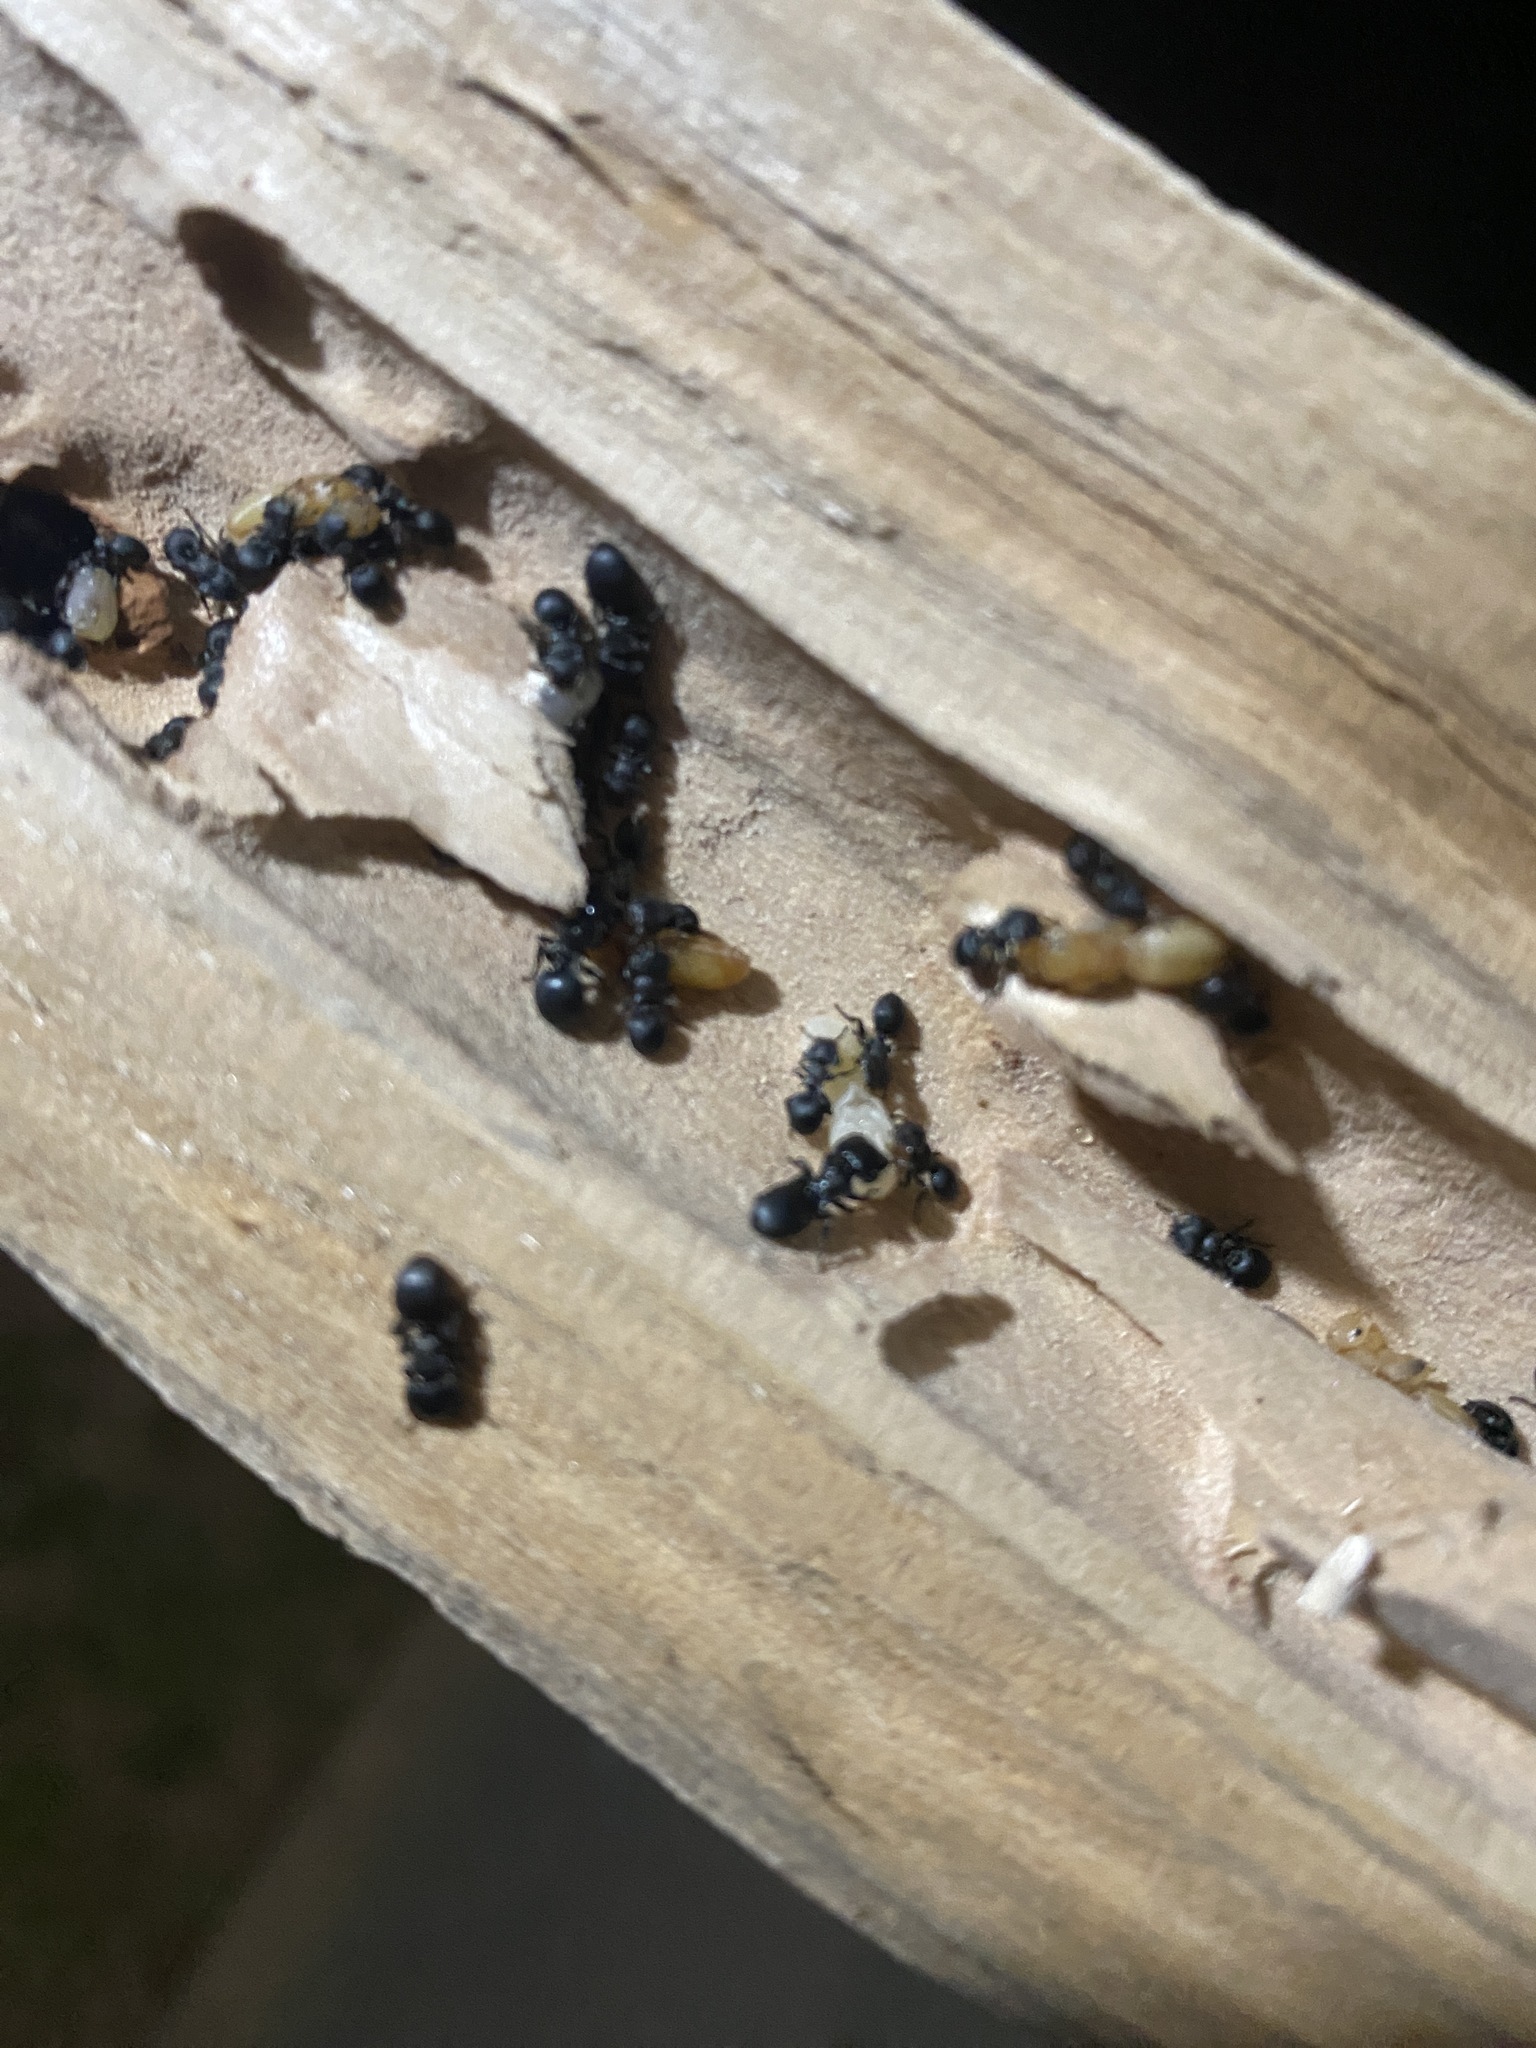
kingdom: Animalia
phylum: Arthropoda
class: Insecta
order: Hymenoptera
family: Formicidae
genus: Cephalotes
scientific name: Cephalotes pusillus
